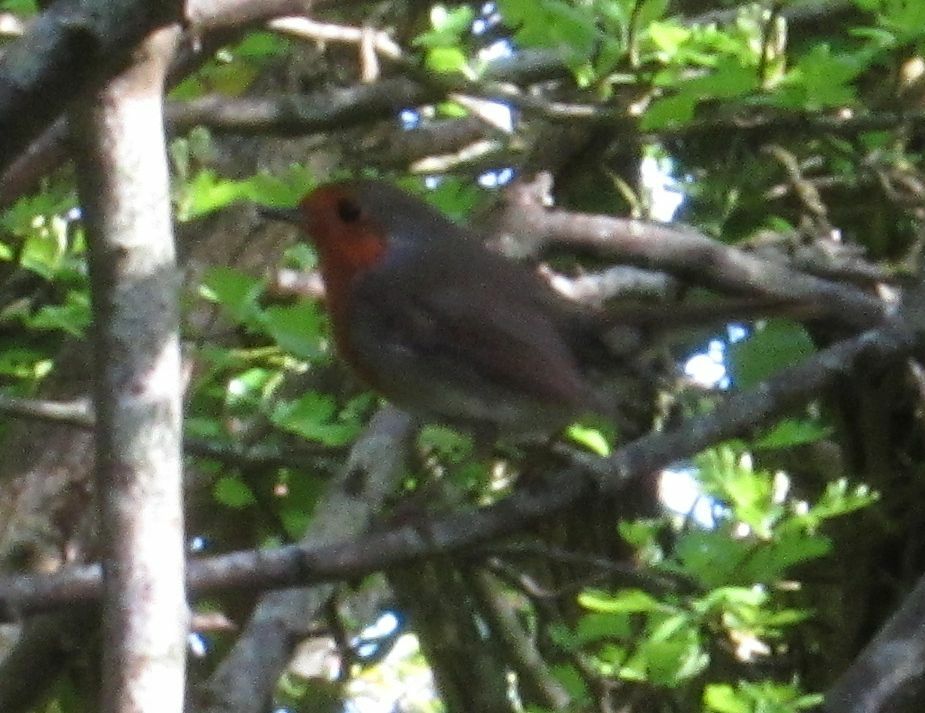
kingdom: Animalia
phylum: Chordata
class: Aves
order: Passeriformes
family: Muscicapidae
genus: Erithacus
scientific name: Erithacus rubecula
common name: European robin
